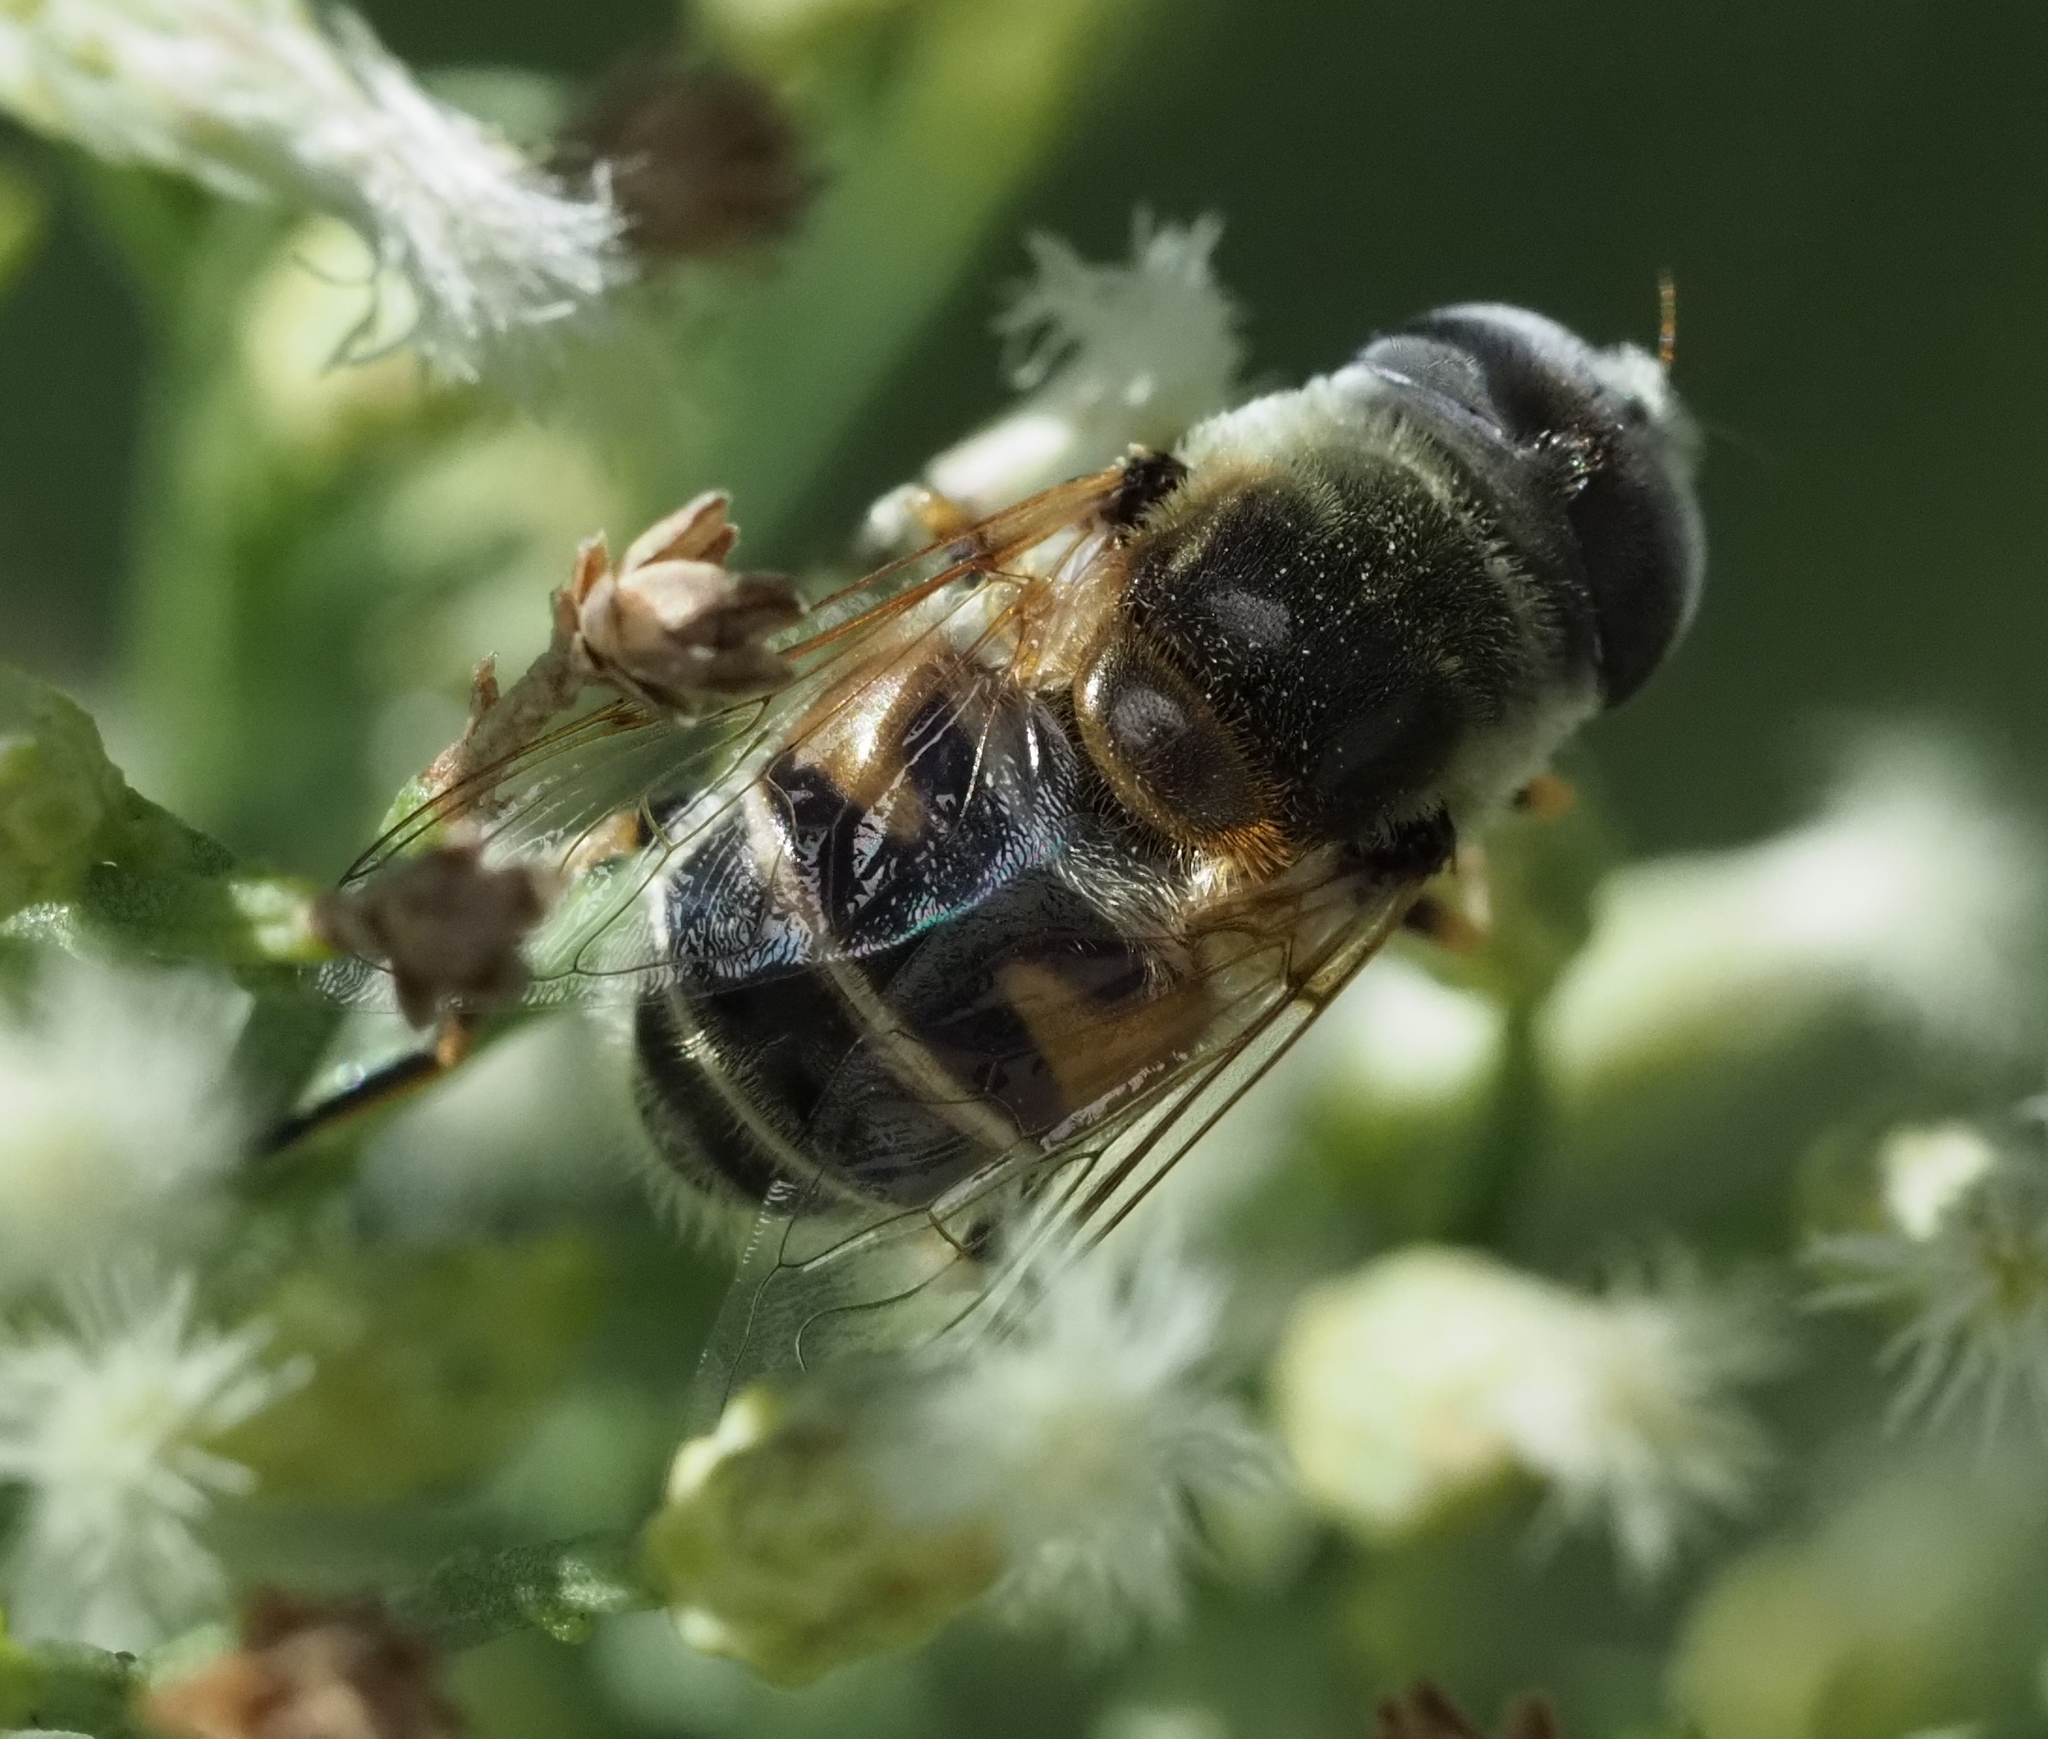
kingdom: Animalia
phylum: Arthropoda
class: Insecta
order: Diptera
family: Syrphidae
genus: Eristalis
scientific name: Eristalis stipator
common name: Yellow-shouldered drone fly
